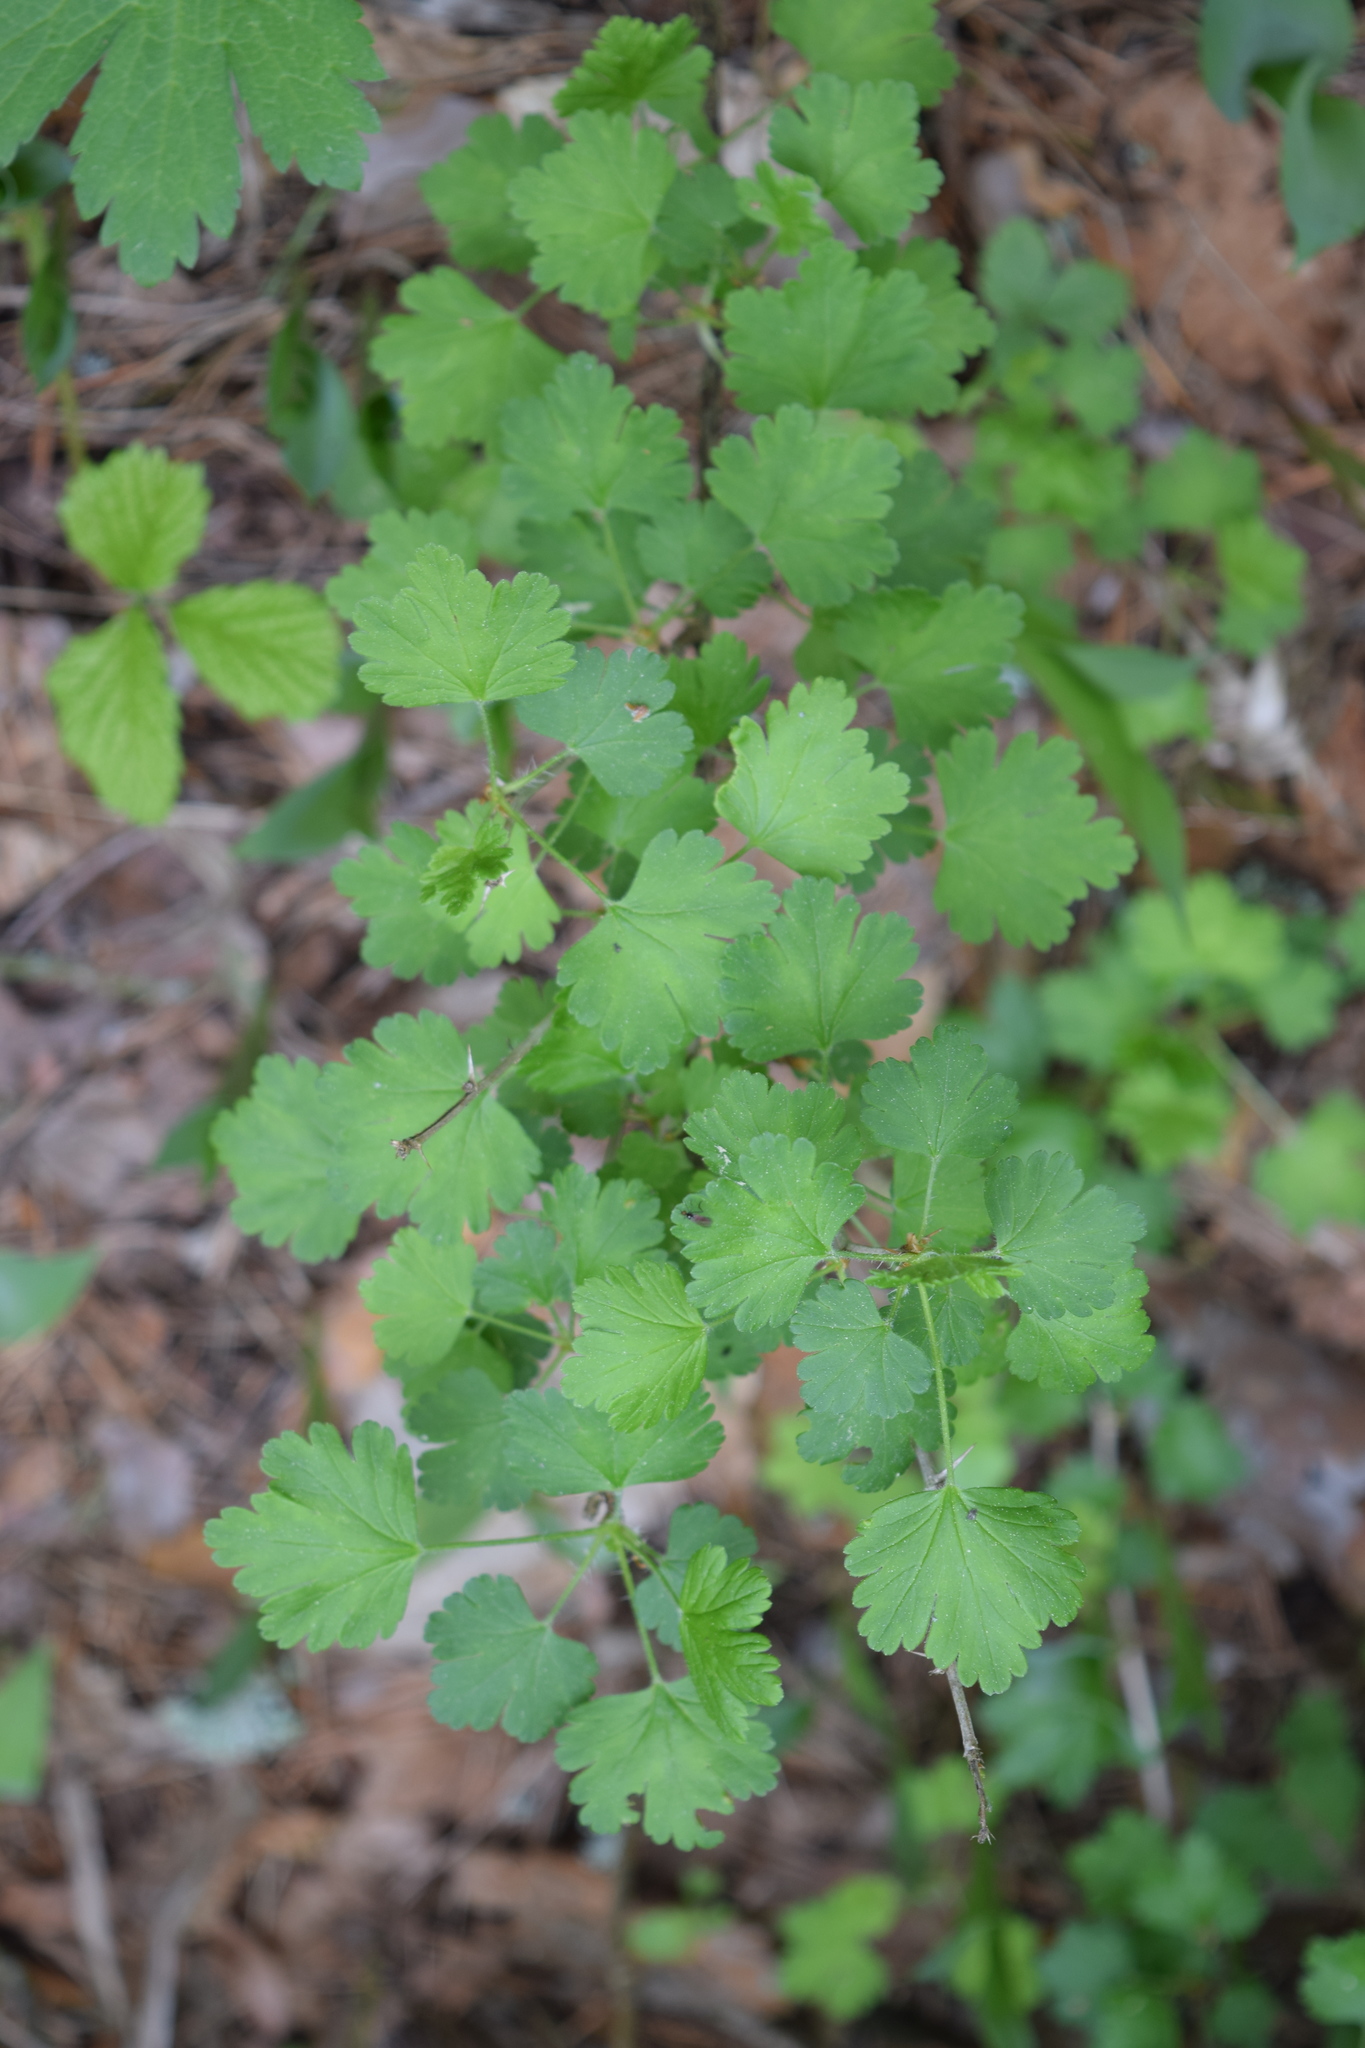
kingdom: Plantae
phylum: Tracheophyta
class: Magnoliopsida
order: Saxifragales
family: Grossulariaceae
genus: Ribes
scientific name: Ribes uva-crispa
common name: Gooseberry
